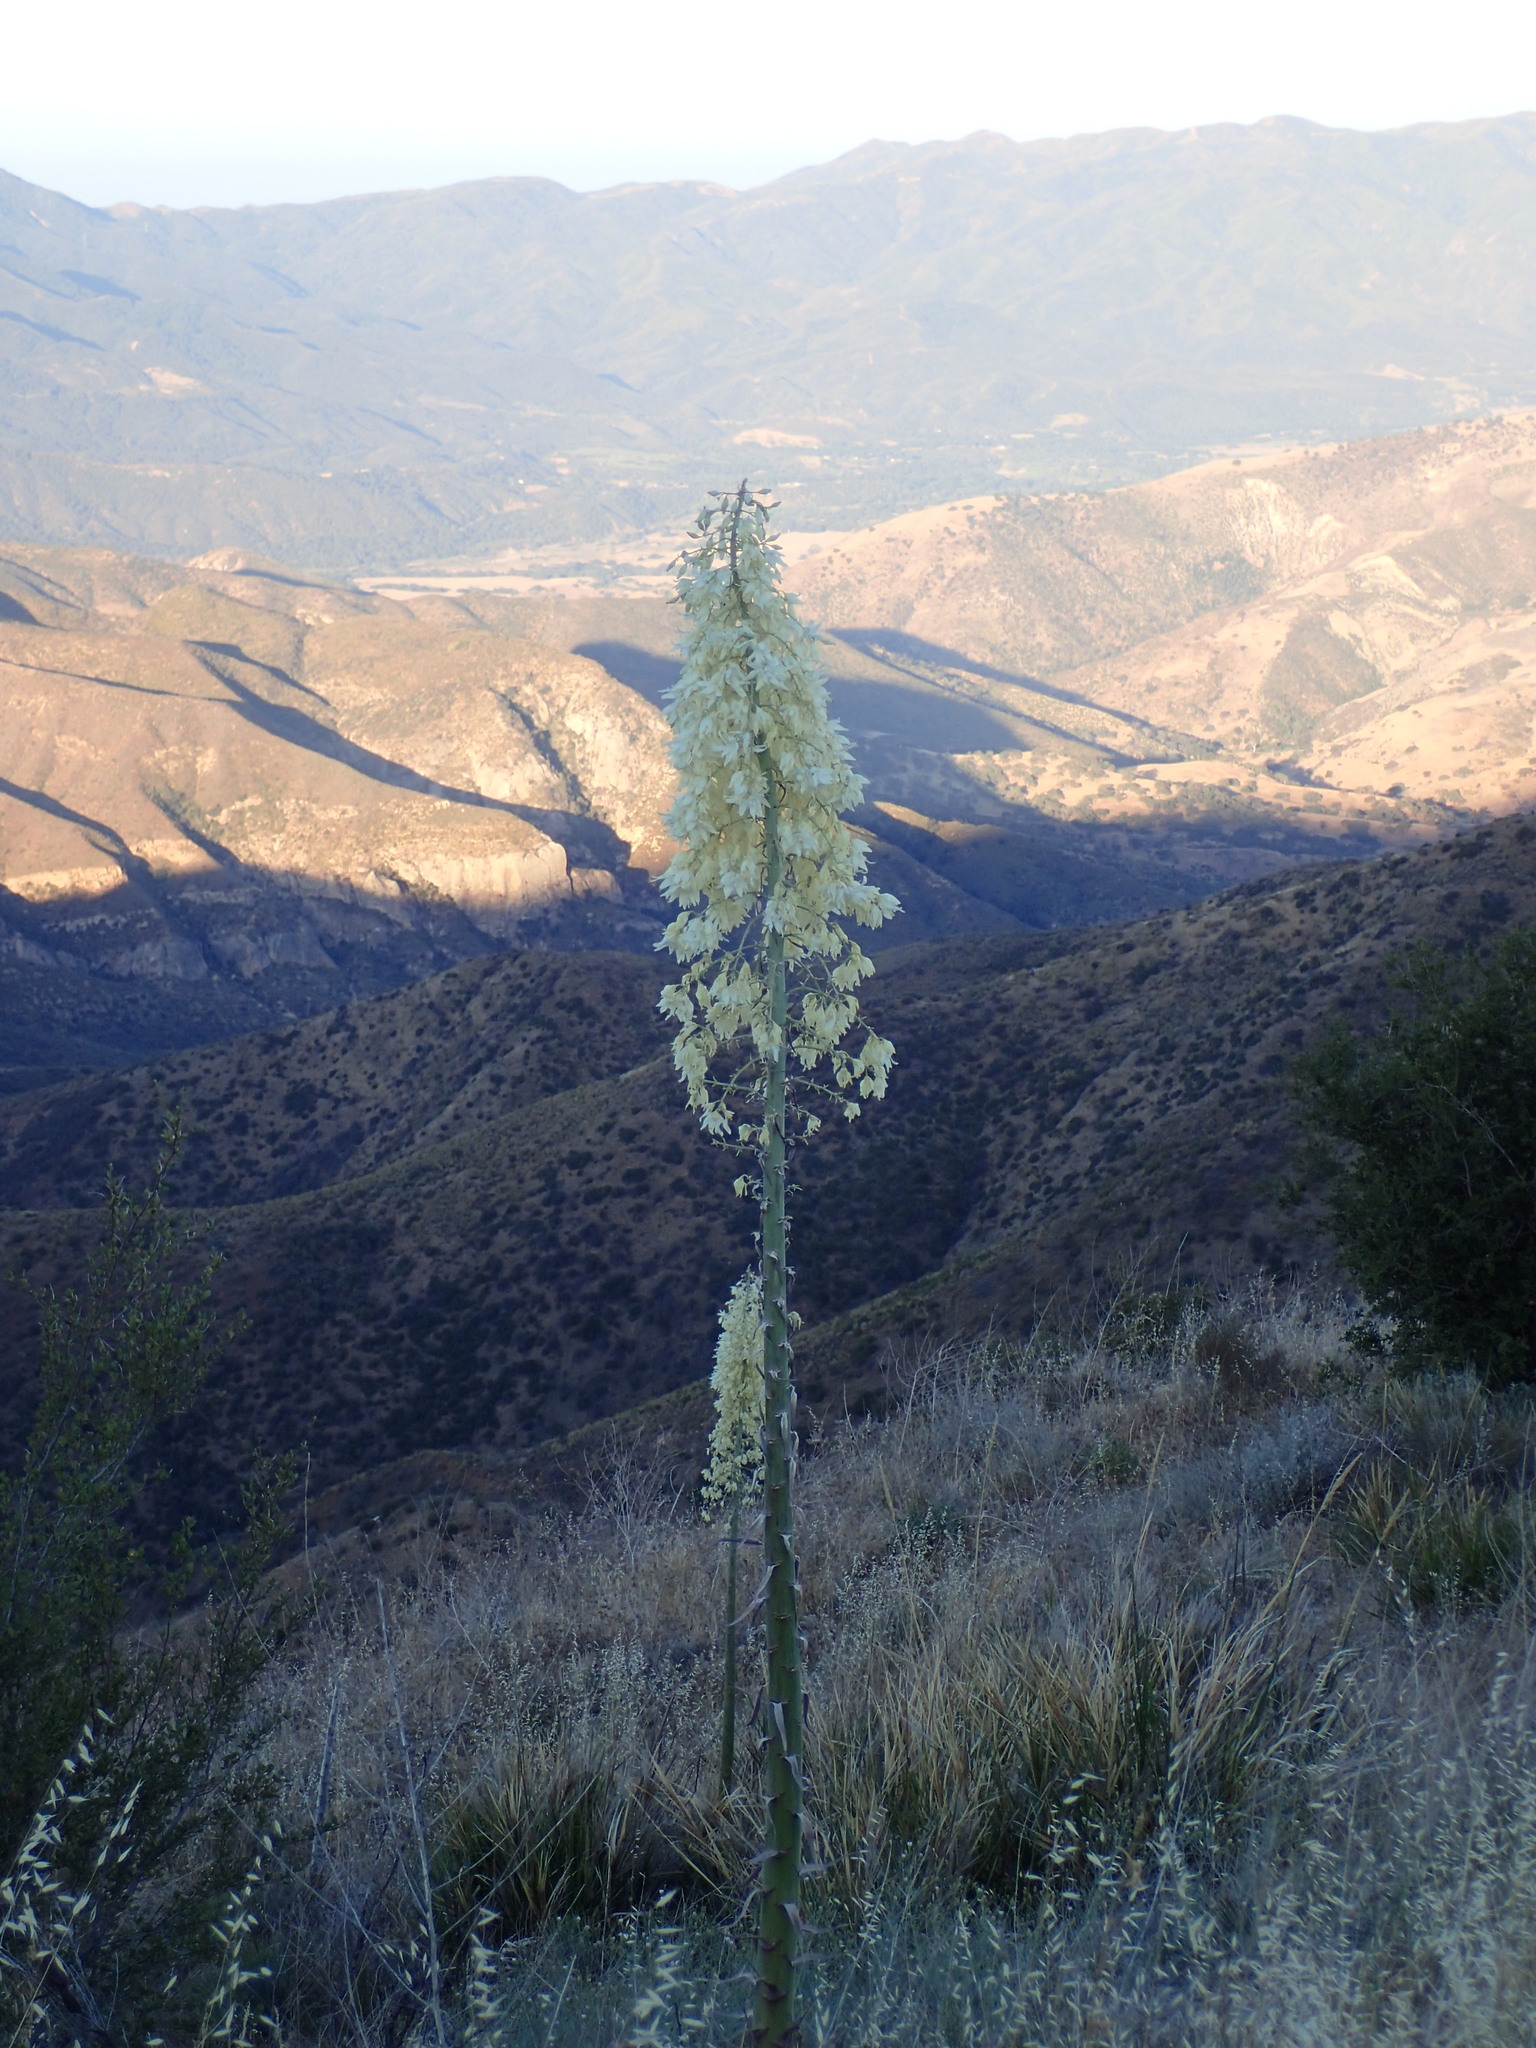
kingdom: Plantae
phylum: Tracheophyta
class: Liliopsida
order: Asparagales
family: Asparagaceae
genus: Hesperoyucca
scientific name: Hesperoyucca whipplei
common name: Our lord's-candle
